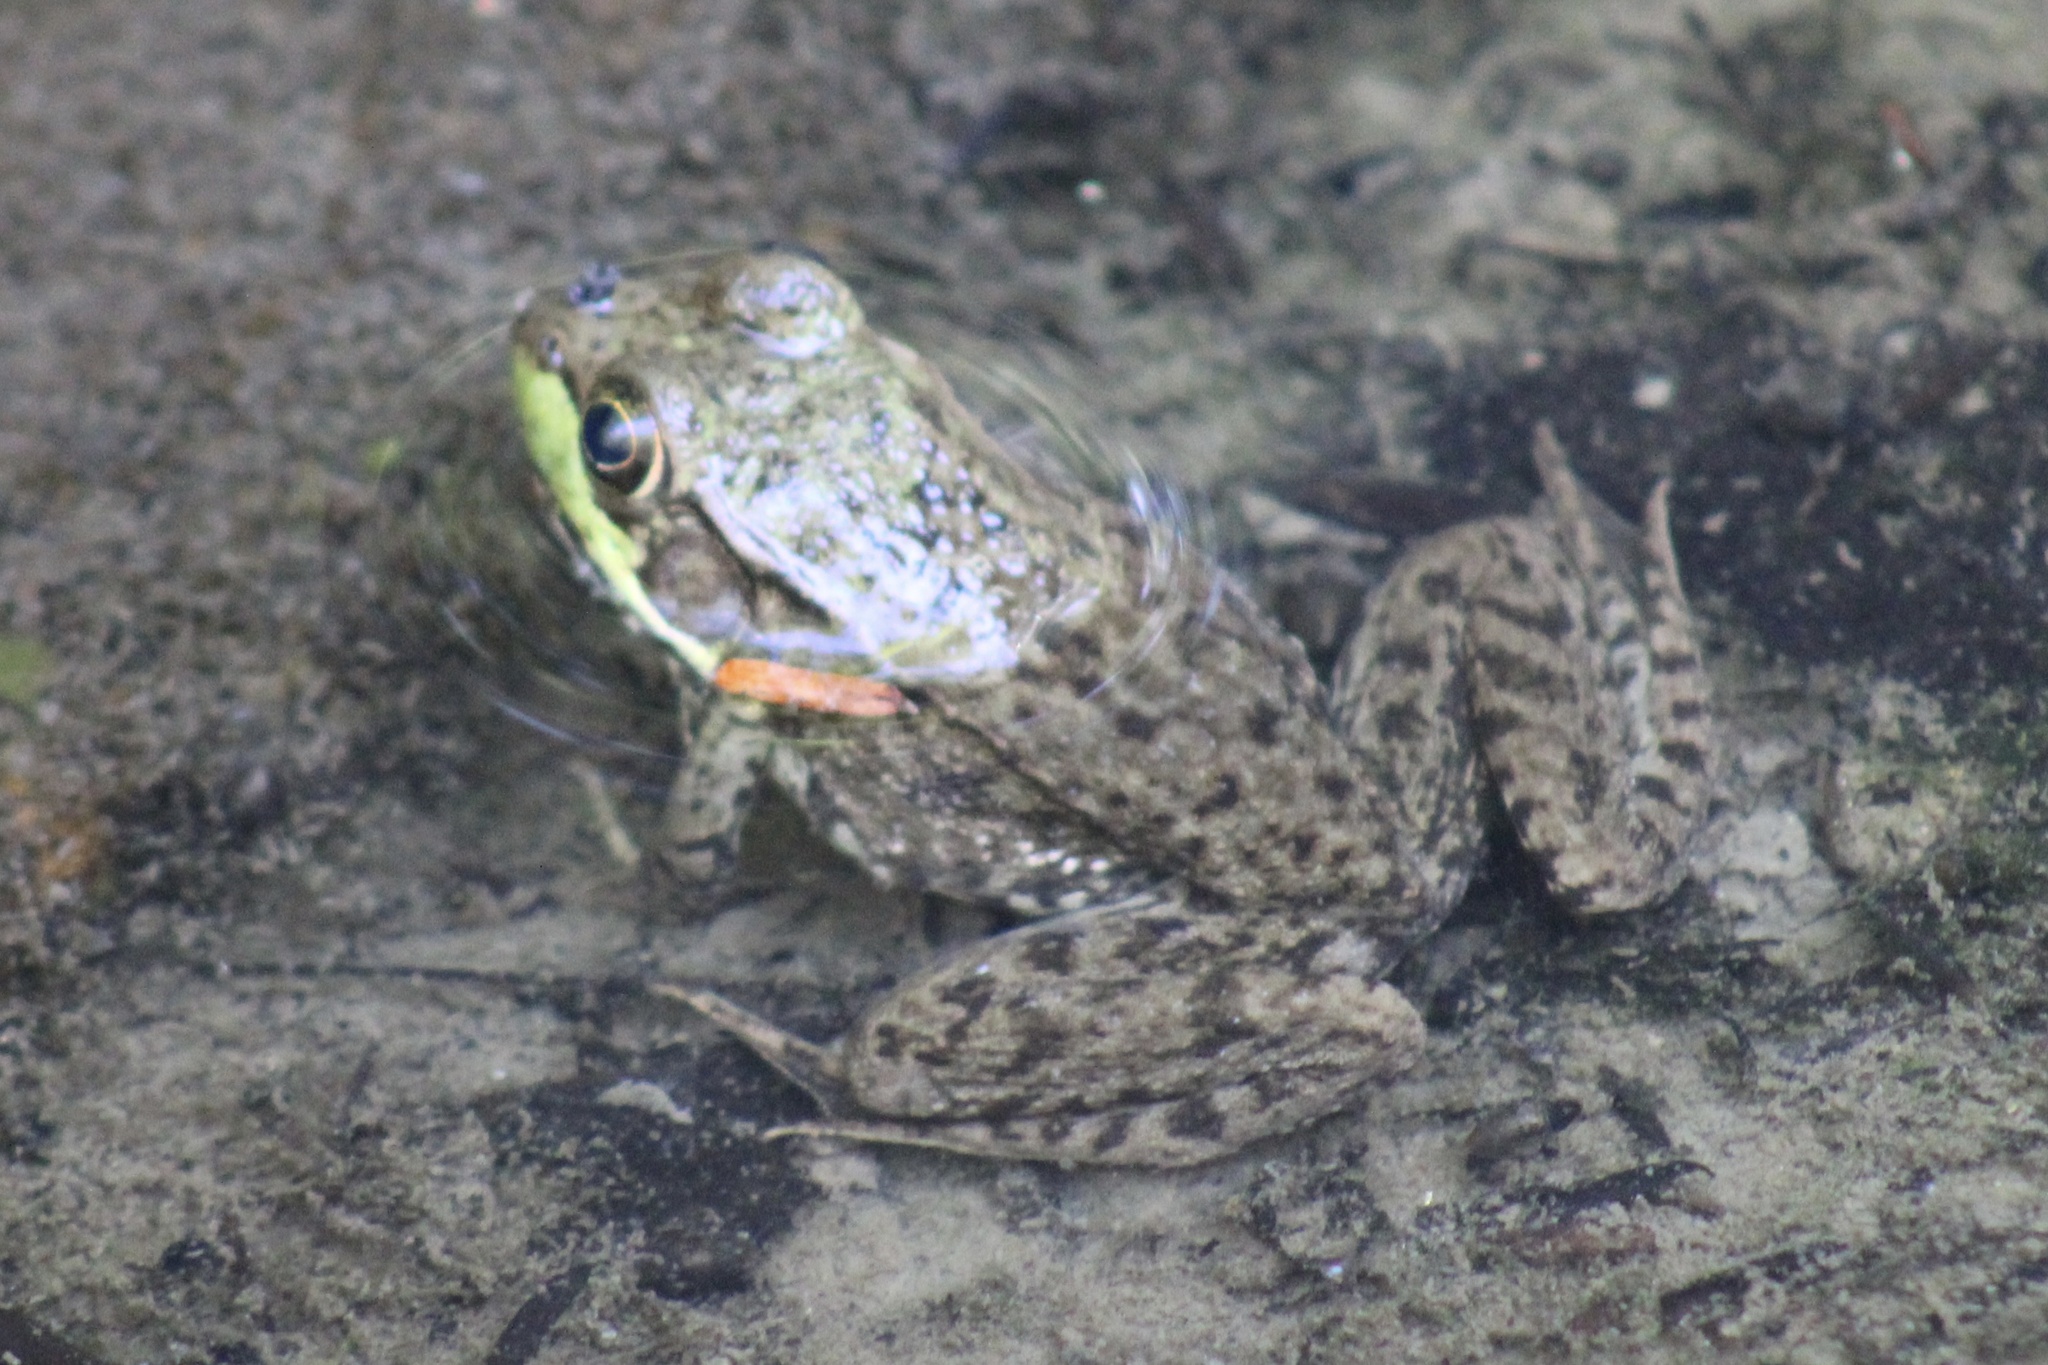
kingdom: Animalia
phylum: Chordata
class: Amphibia
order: Anura
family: Ranidae
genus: Lithobates
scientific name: Lithobates clamitans
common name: Green frog
